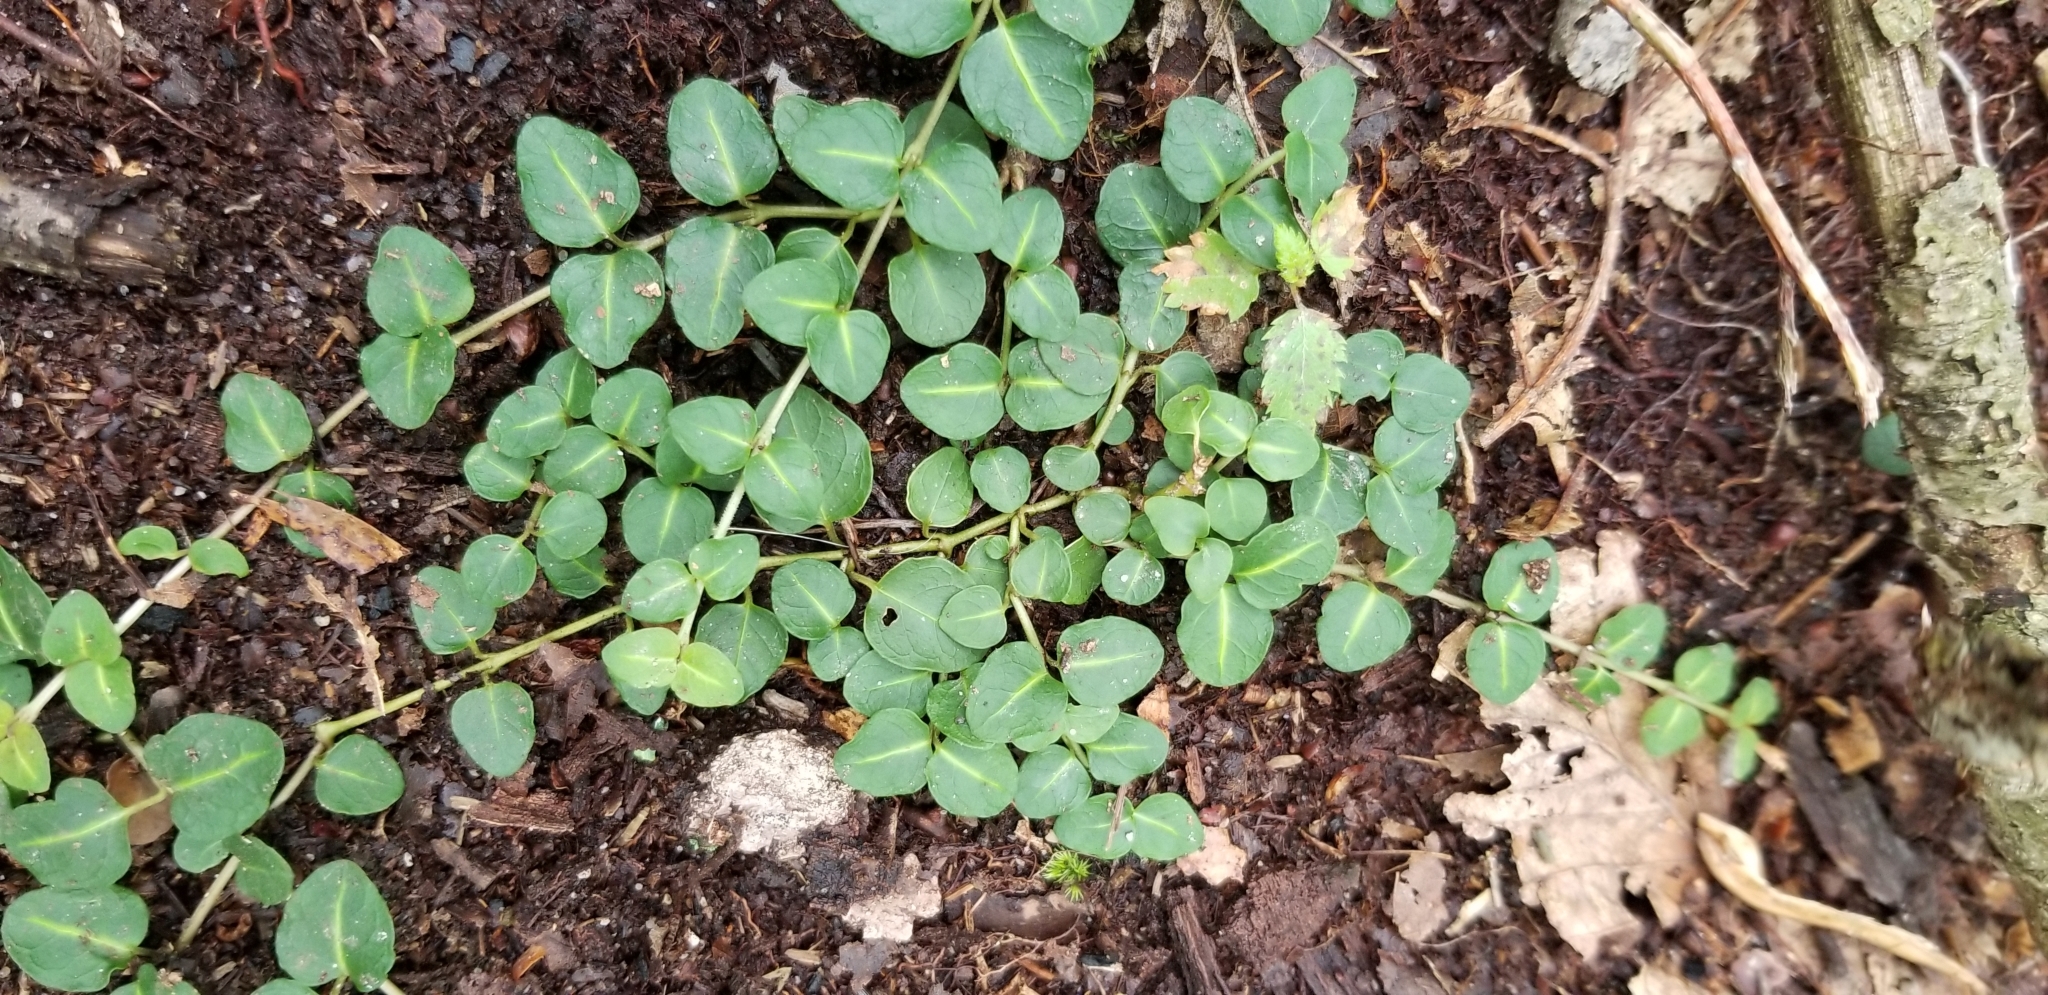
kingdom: Plantae
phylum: Tracheophyta
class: Magnoliopsida
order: Gentianales
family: Rubiaceae
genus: Mitchella
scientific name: Mitchella repens
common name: Partridge-berry
